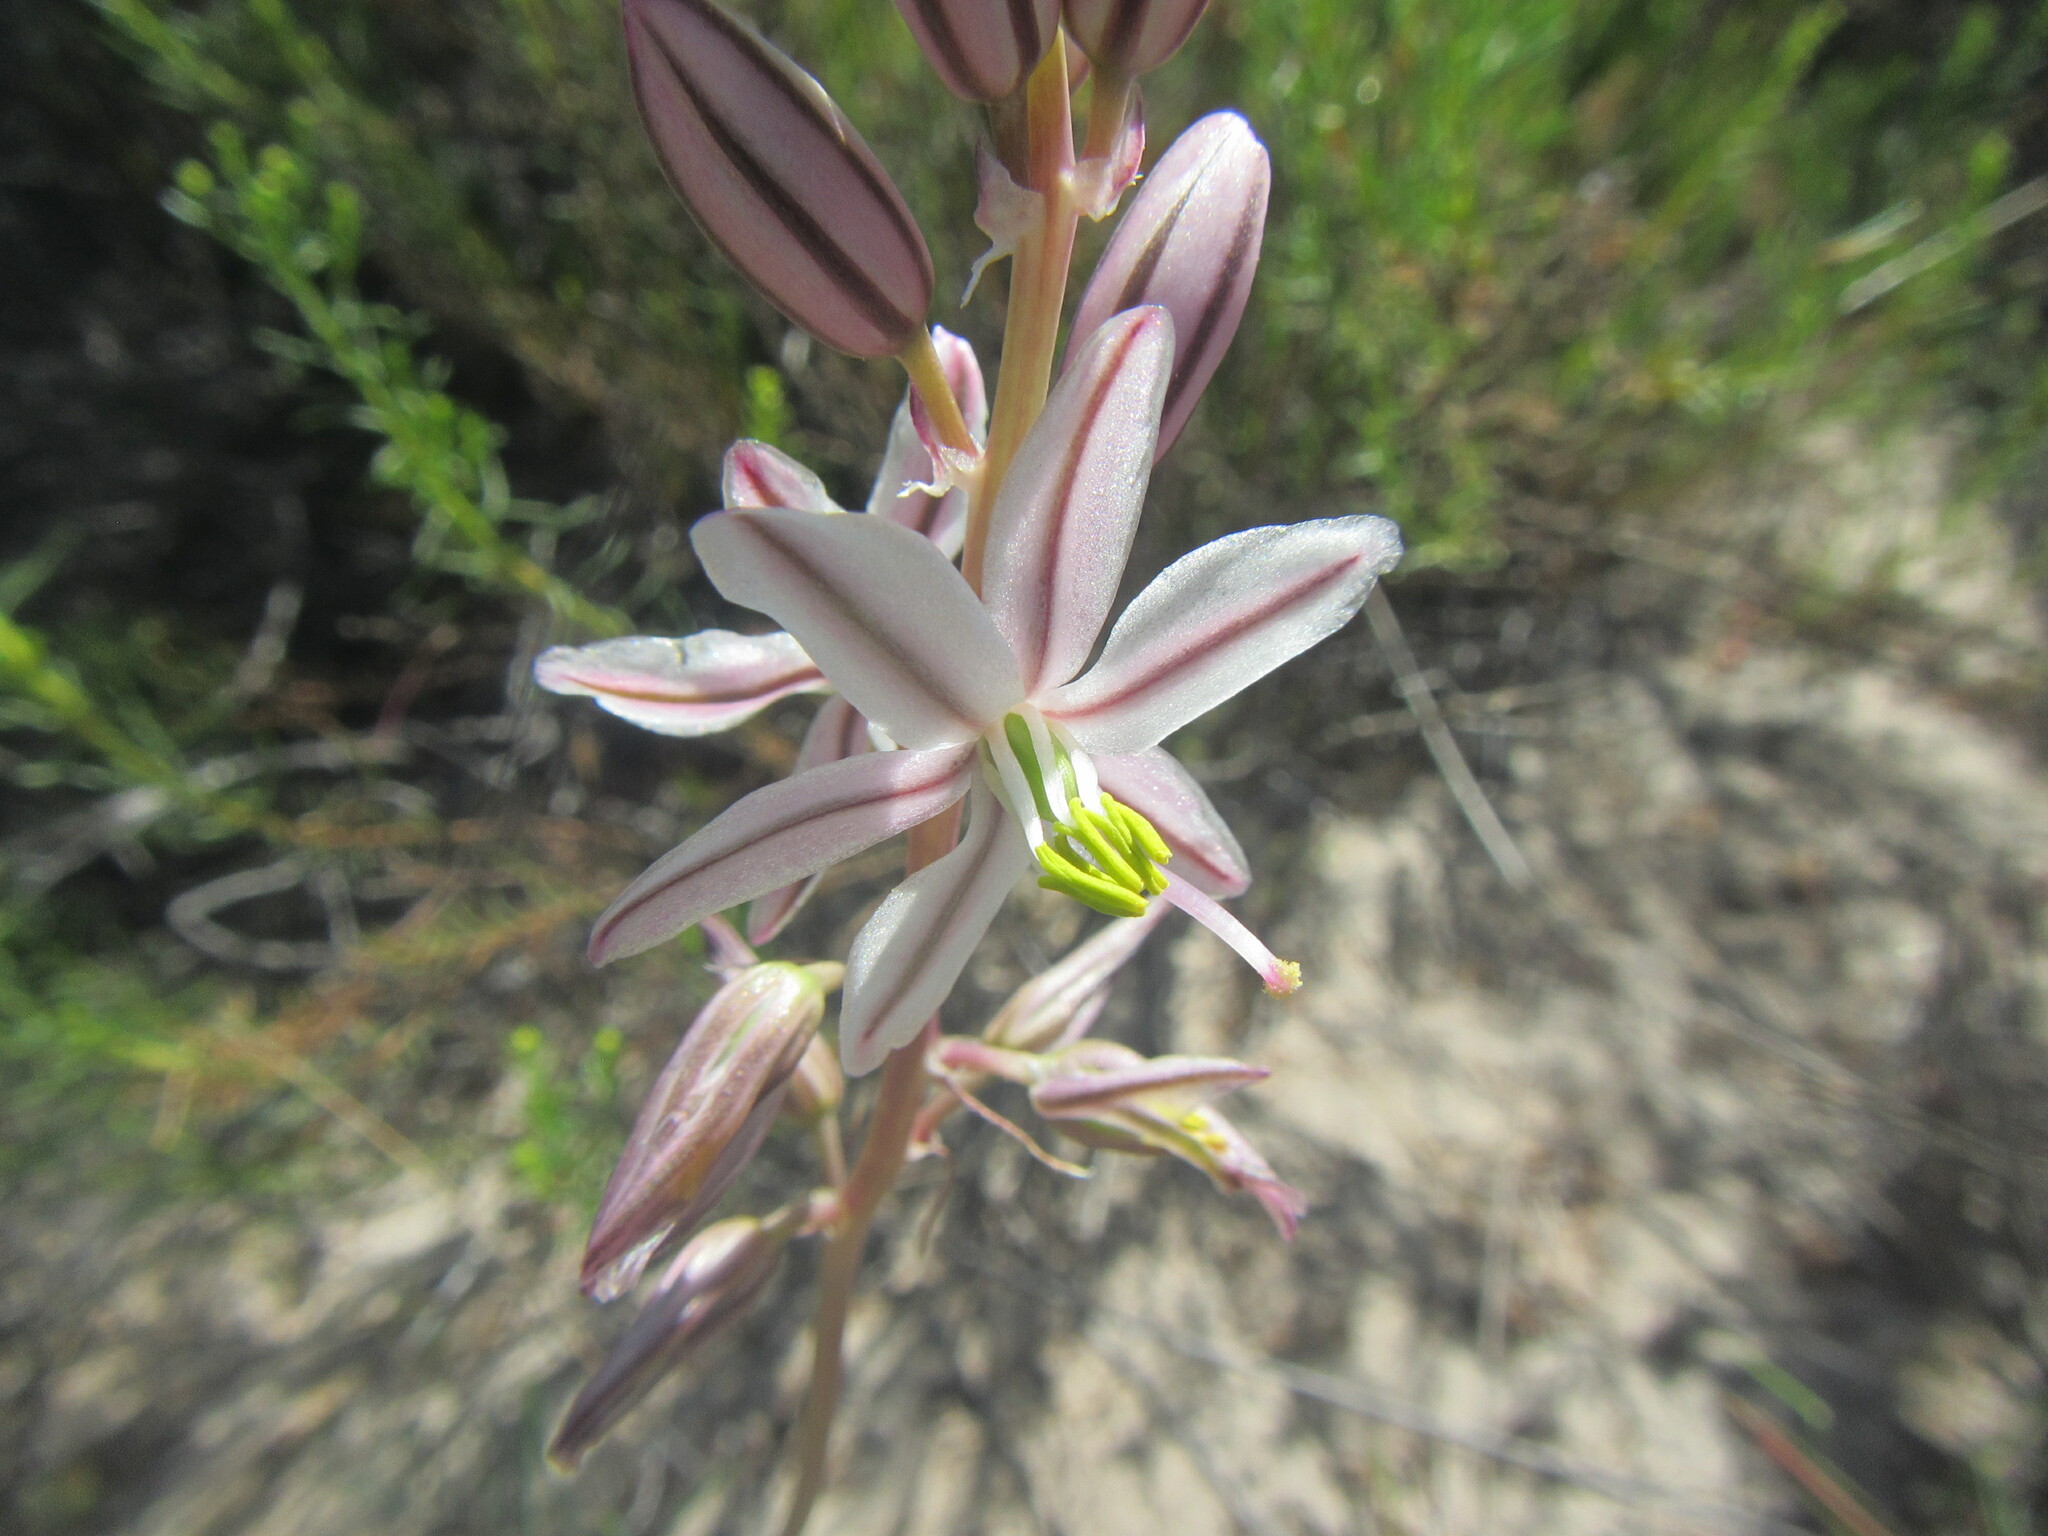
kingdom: Plantae
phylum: Tracheophyta
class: Liliopsida
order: Asparagales
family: Asparagaceae
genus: Drimia
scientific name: Drimia exuviata
